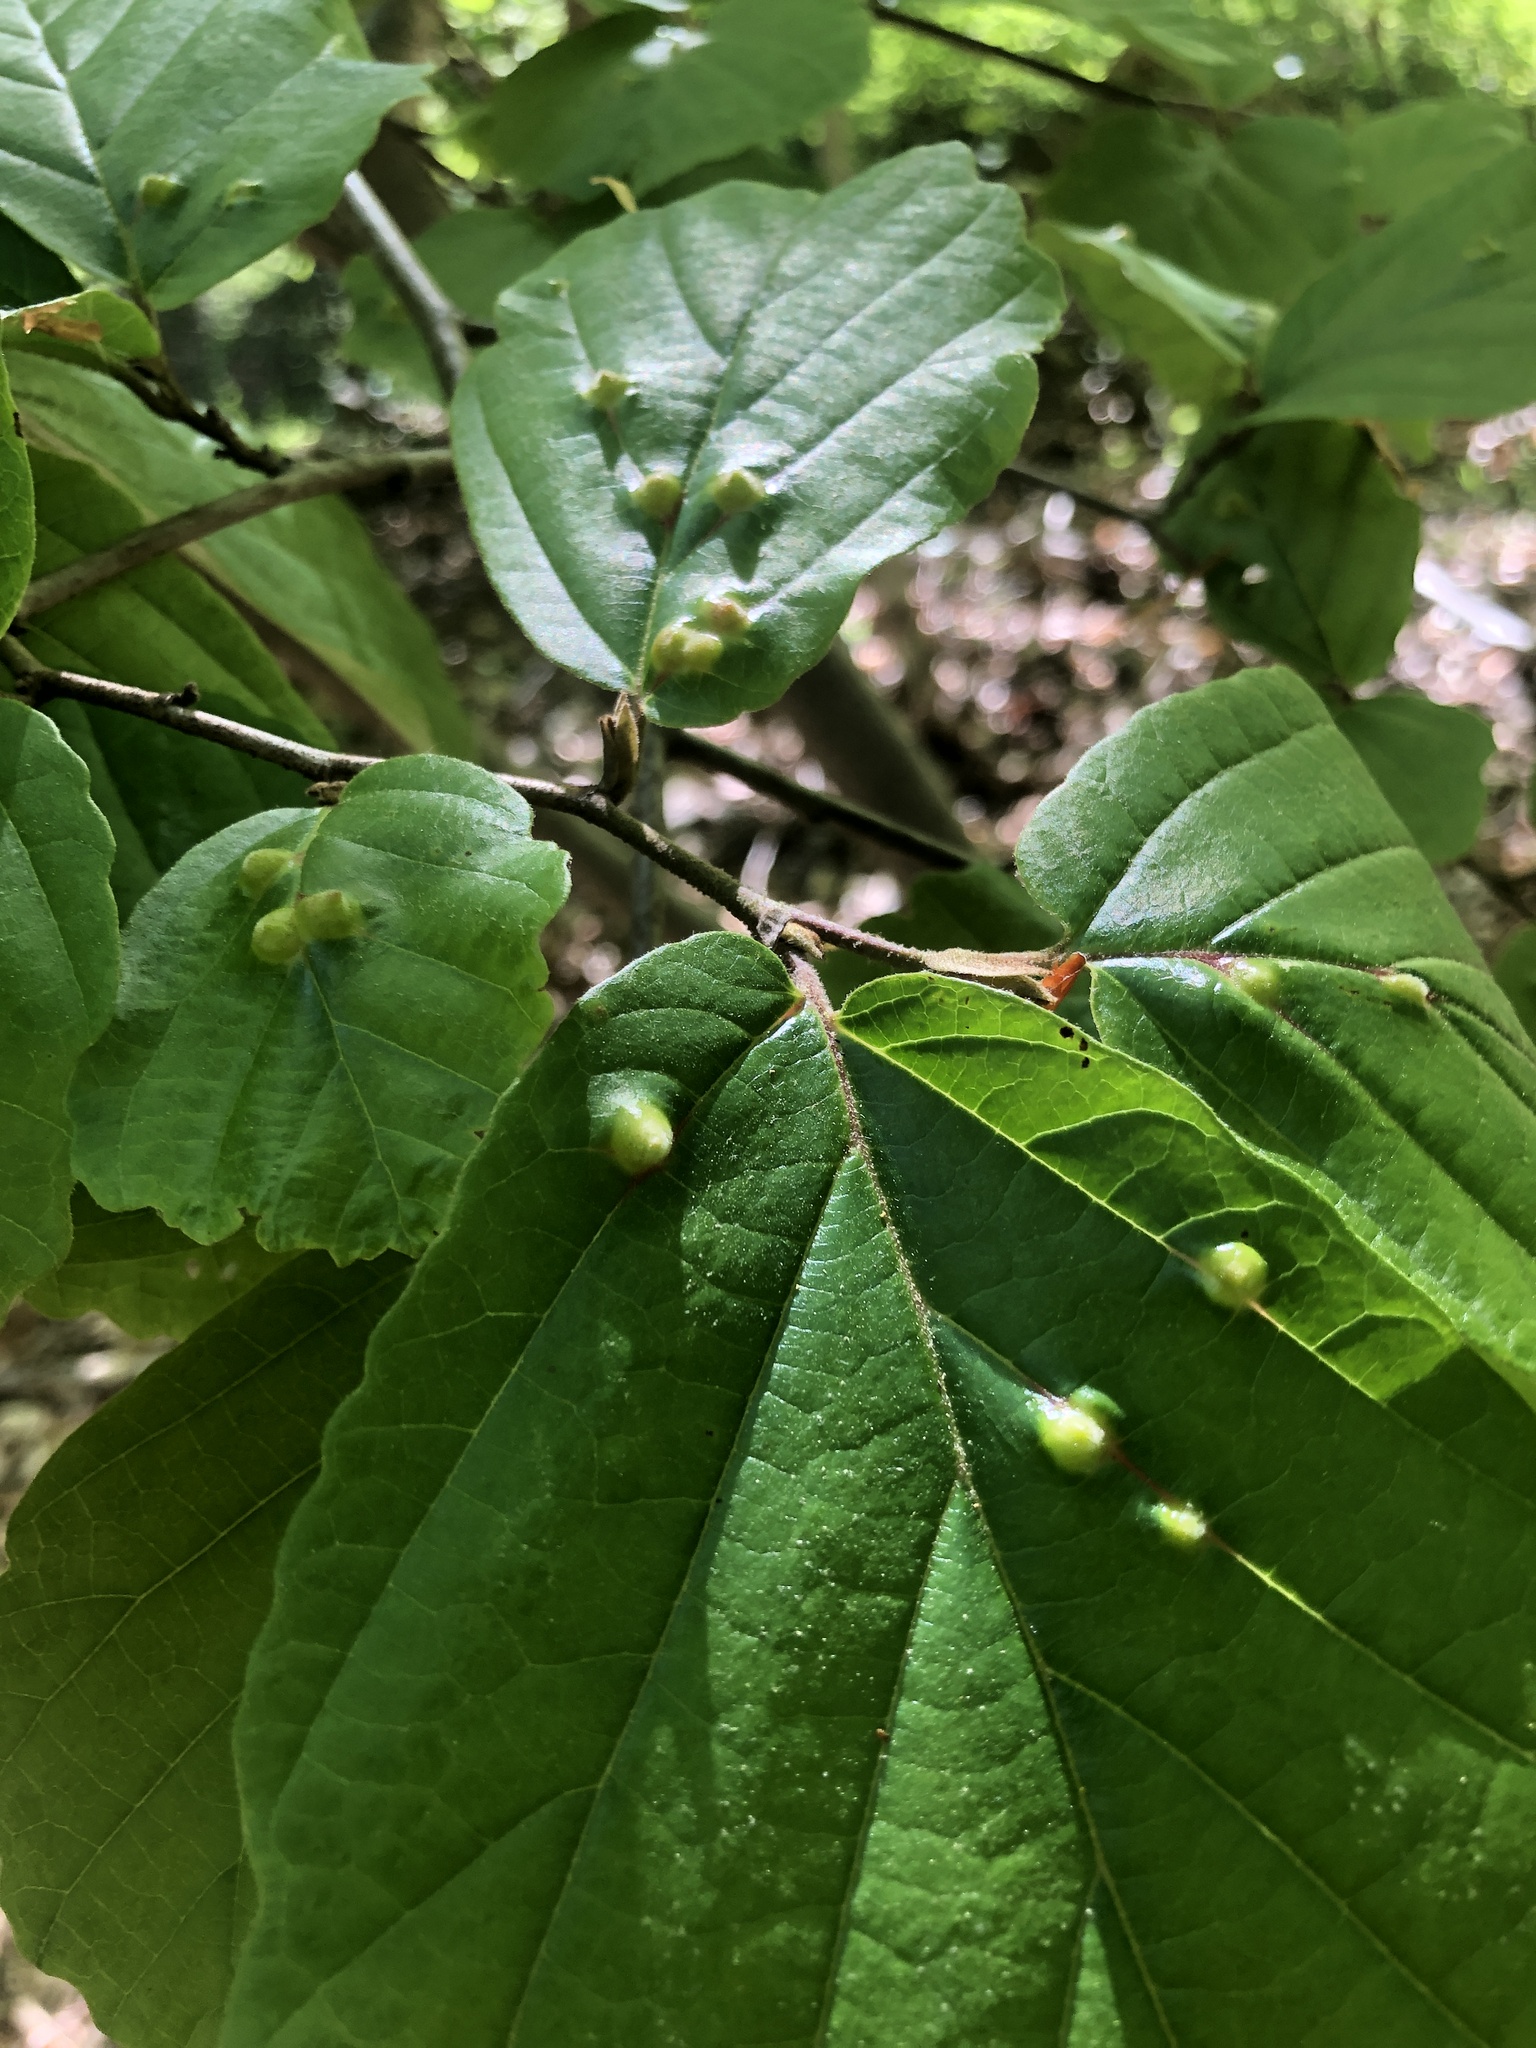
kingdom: Animalia
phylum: Arthropoda
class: Insecta
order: Hemiptera
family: Aphididae
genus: Hormaphis
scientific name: Hormaphis hamamelidis
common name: Witch-hazel cone gall aphid
